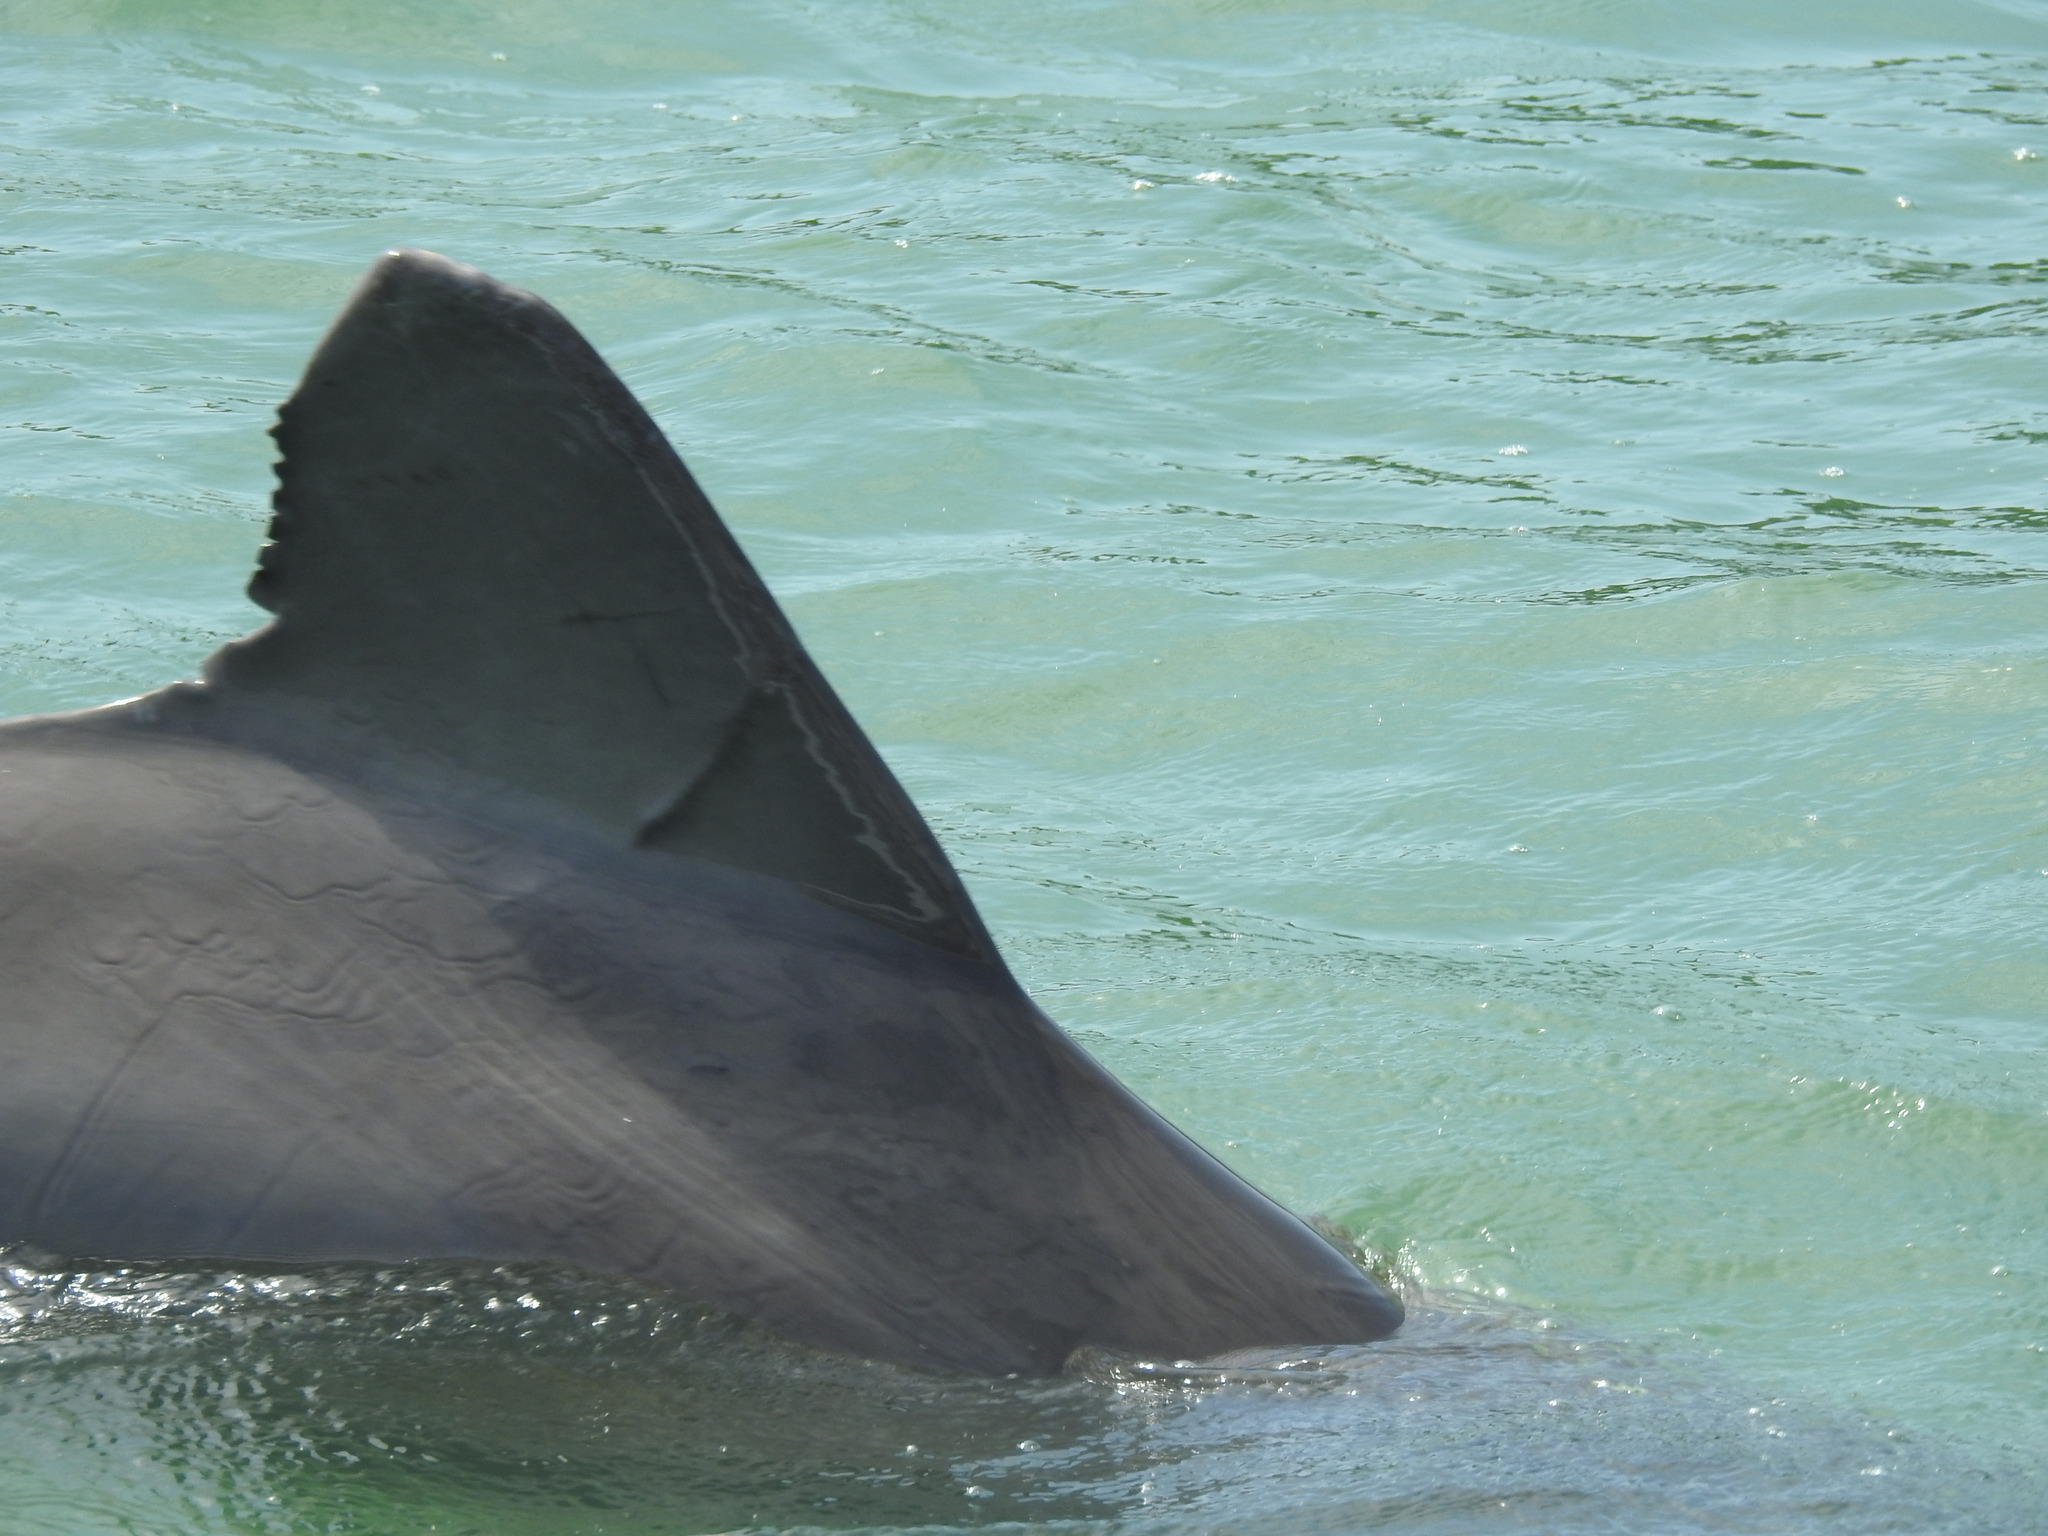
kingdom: Animalia
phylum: Chordata
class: Mammalia
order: Cetacea
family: Delphinidae
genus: Tursiops
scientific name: Tursiops truncatus
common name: Bottlenose dolphin
